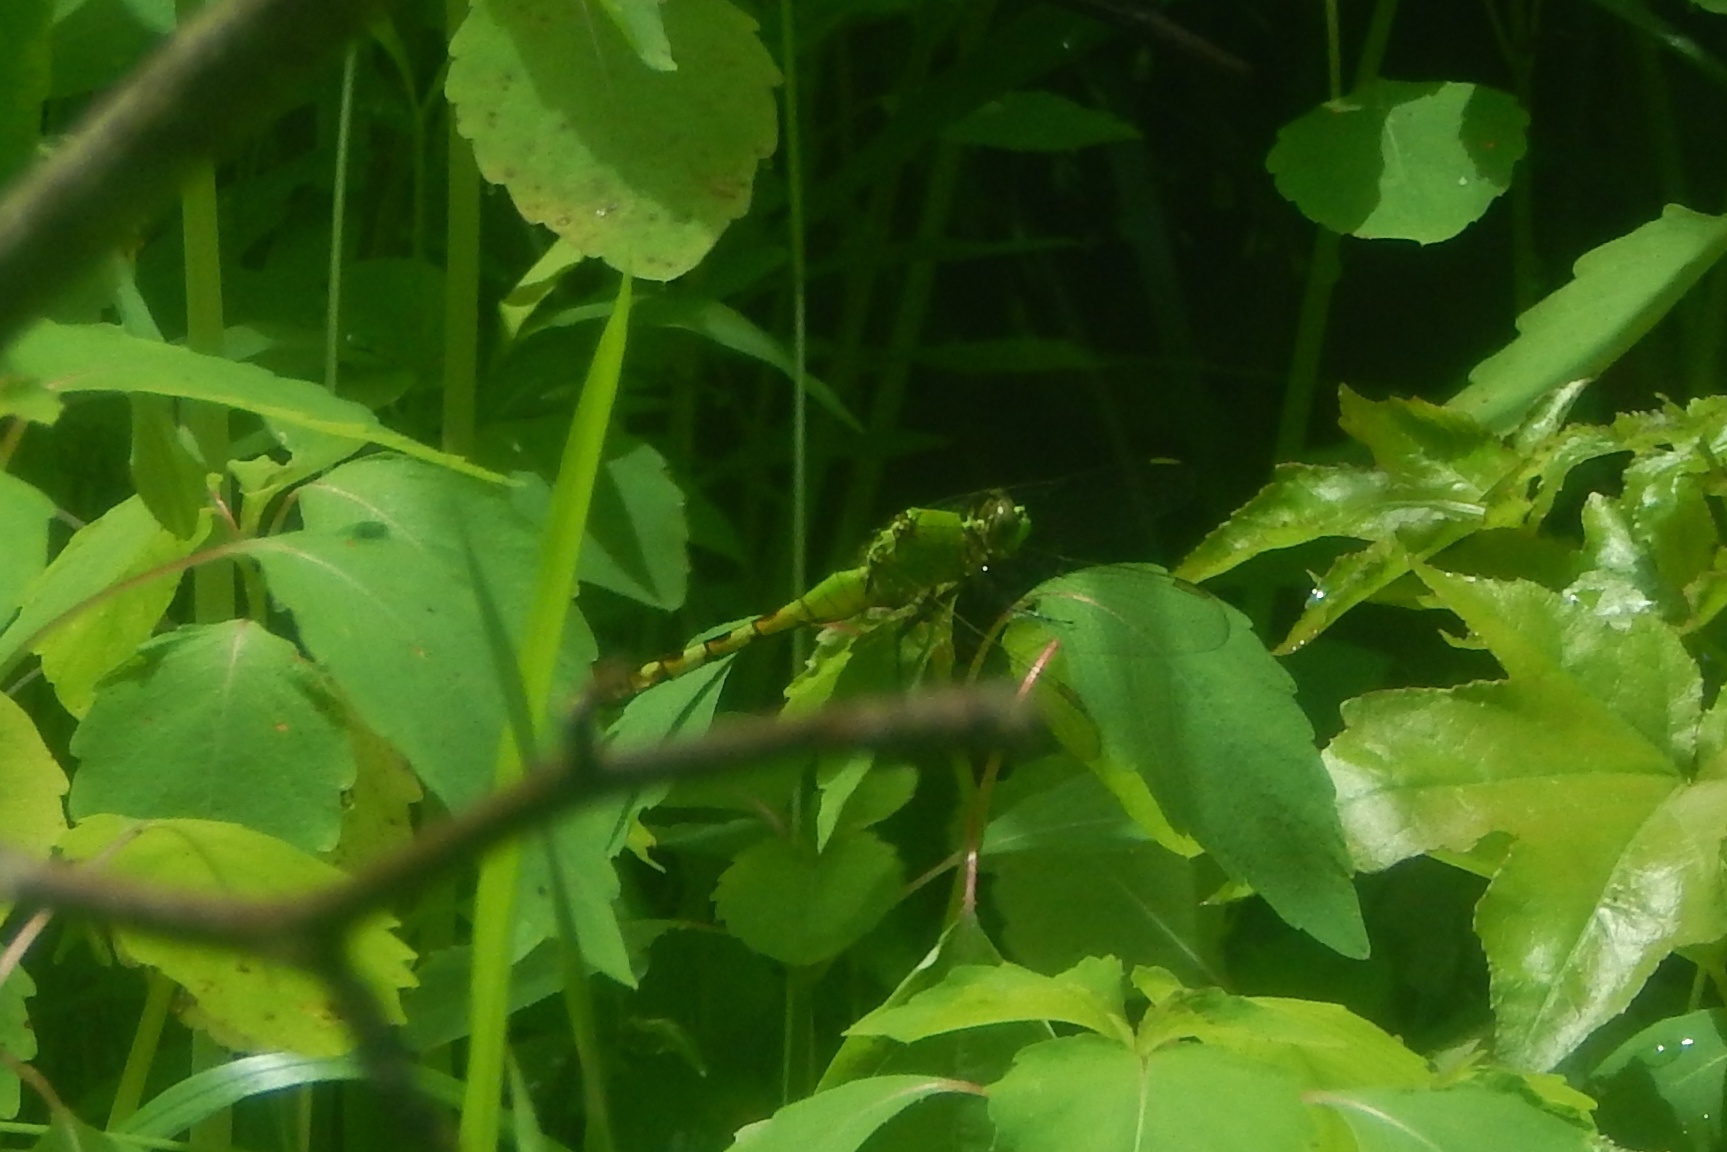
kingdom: Animalia
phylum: Arthropoda
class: Insecta
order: Odonata
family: Libellulidae
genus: Erythemis
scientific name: Erythemis simplicicollis
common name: Eastern pondhawk
